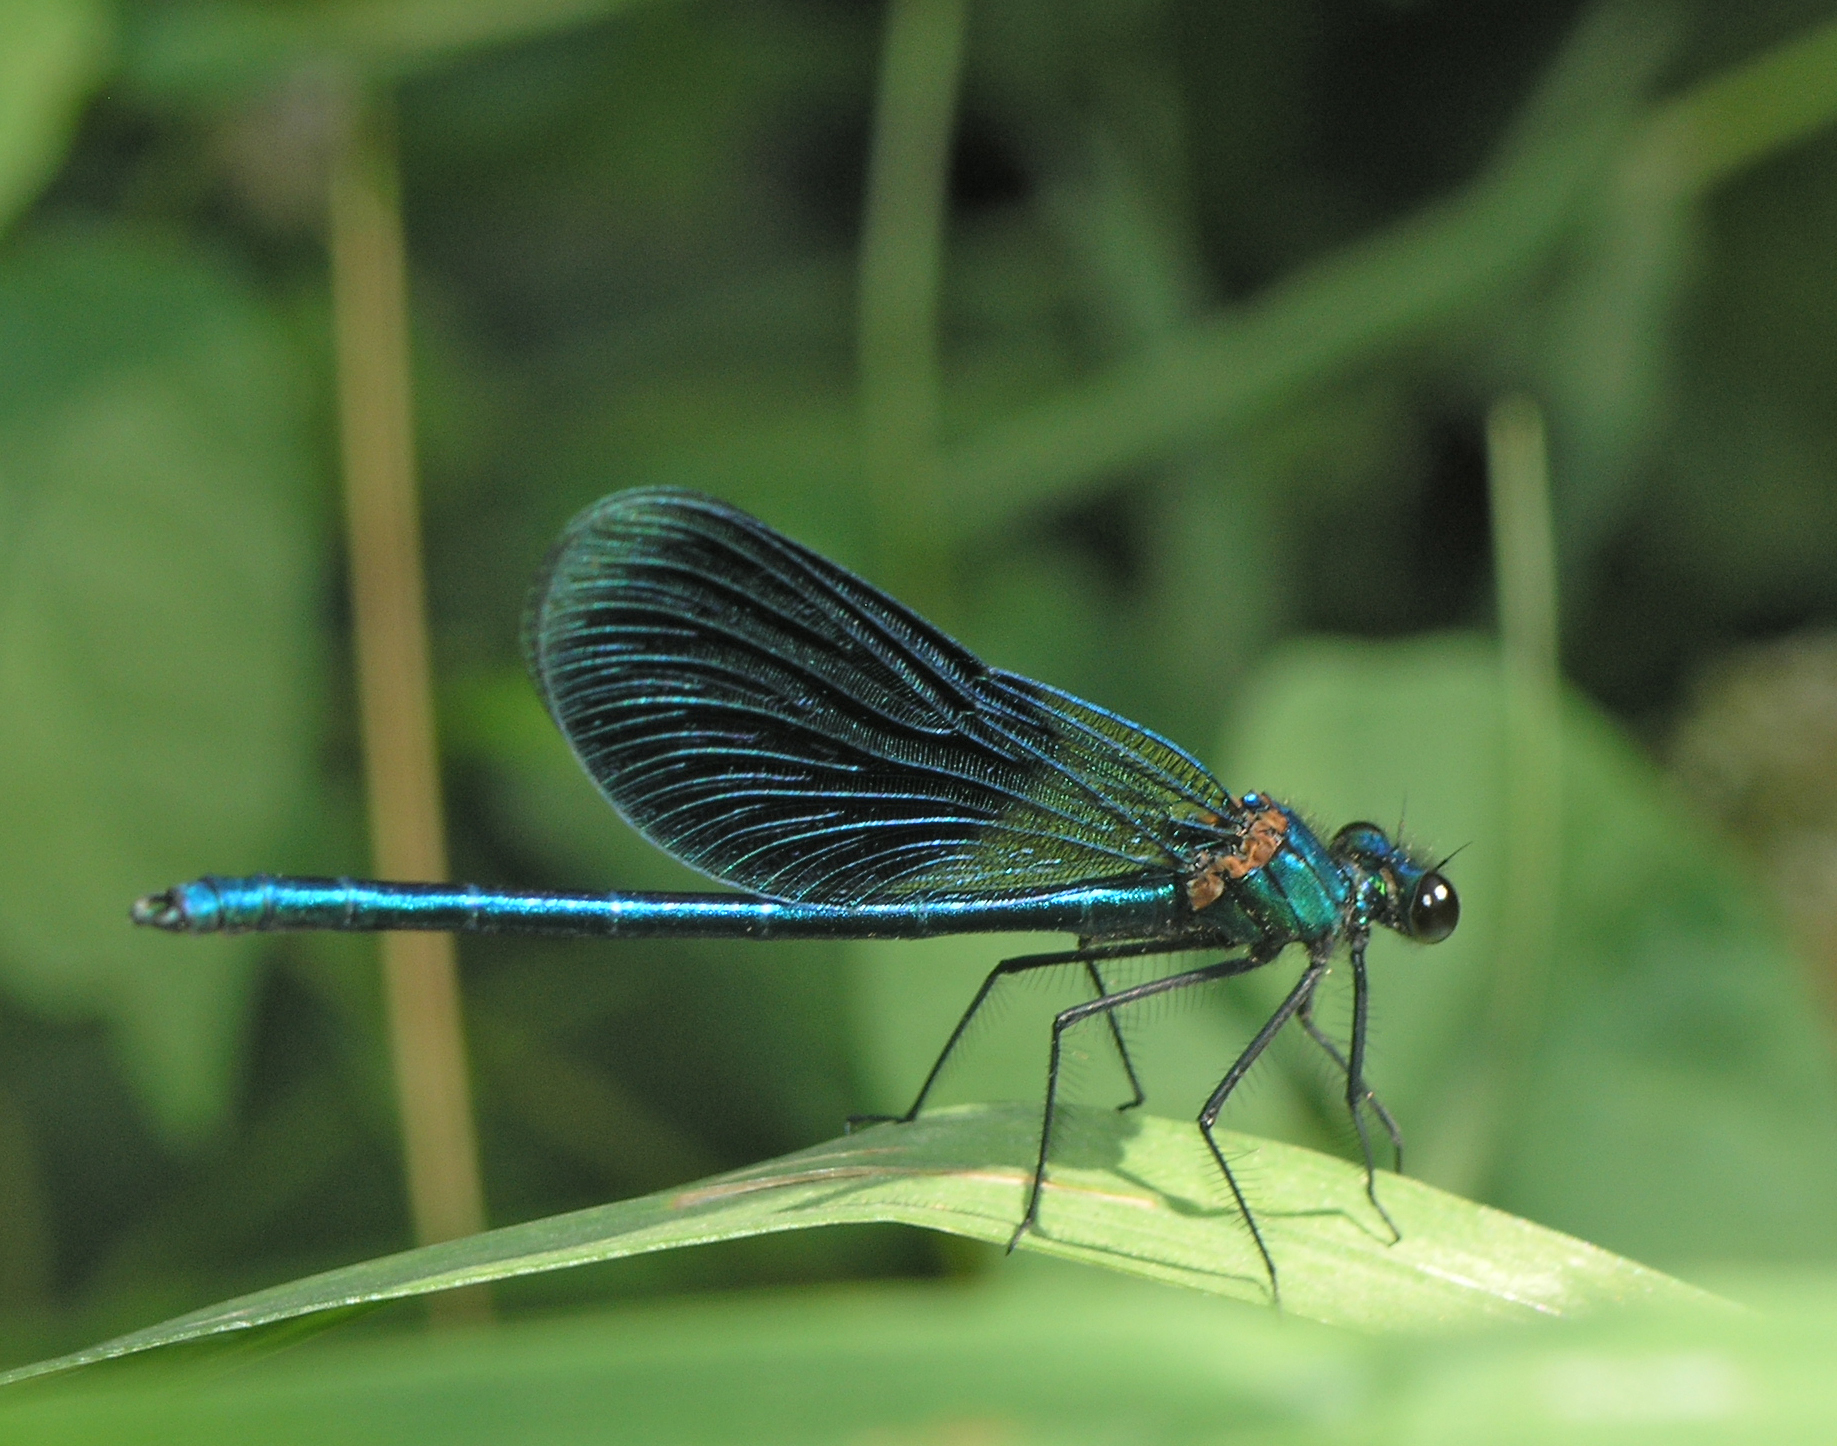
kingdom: Animalia
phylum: Arthropoda
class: Insecta
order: Odonata
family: Calopterygidae
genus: Calopteryx
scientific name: Calopteryx splendens
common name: Banded demoiselle
